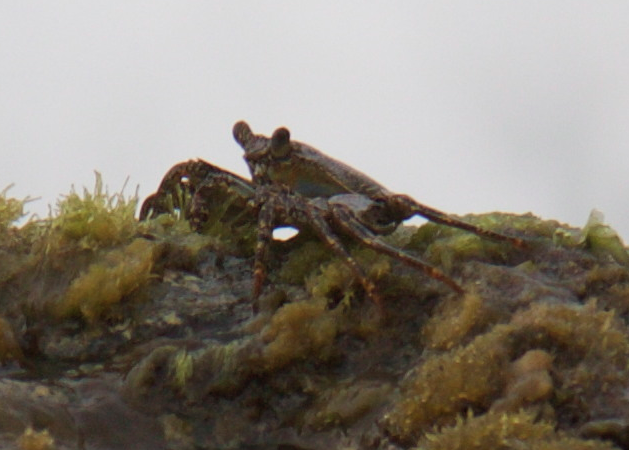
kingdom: Animalia
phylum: Arthropoda
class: Malacostraca
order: Decapoda
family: Grapsidae
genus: Grapsus
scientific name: Grapsus grapsus
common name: Sally lightfoot
